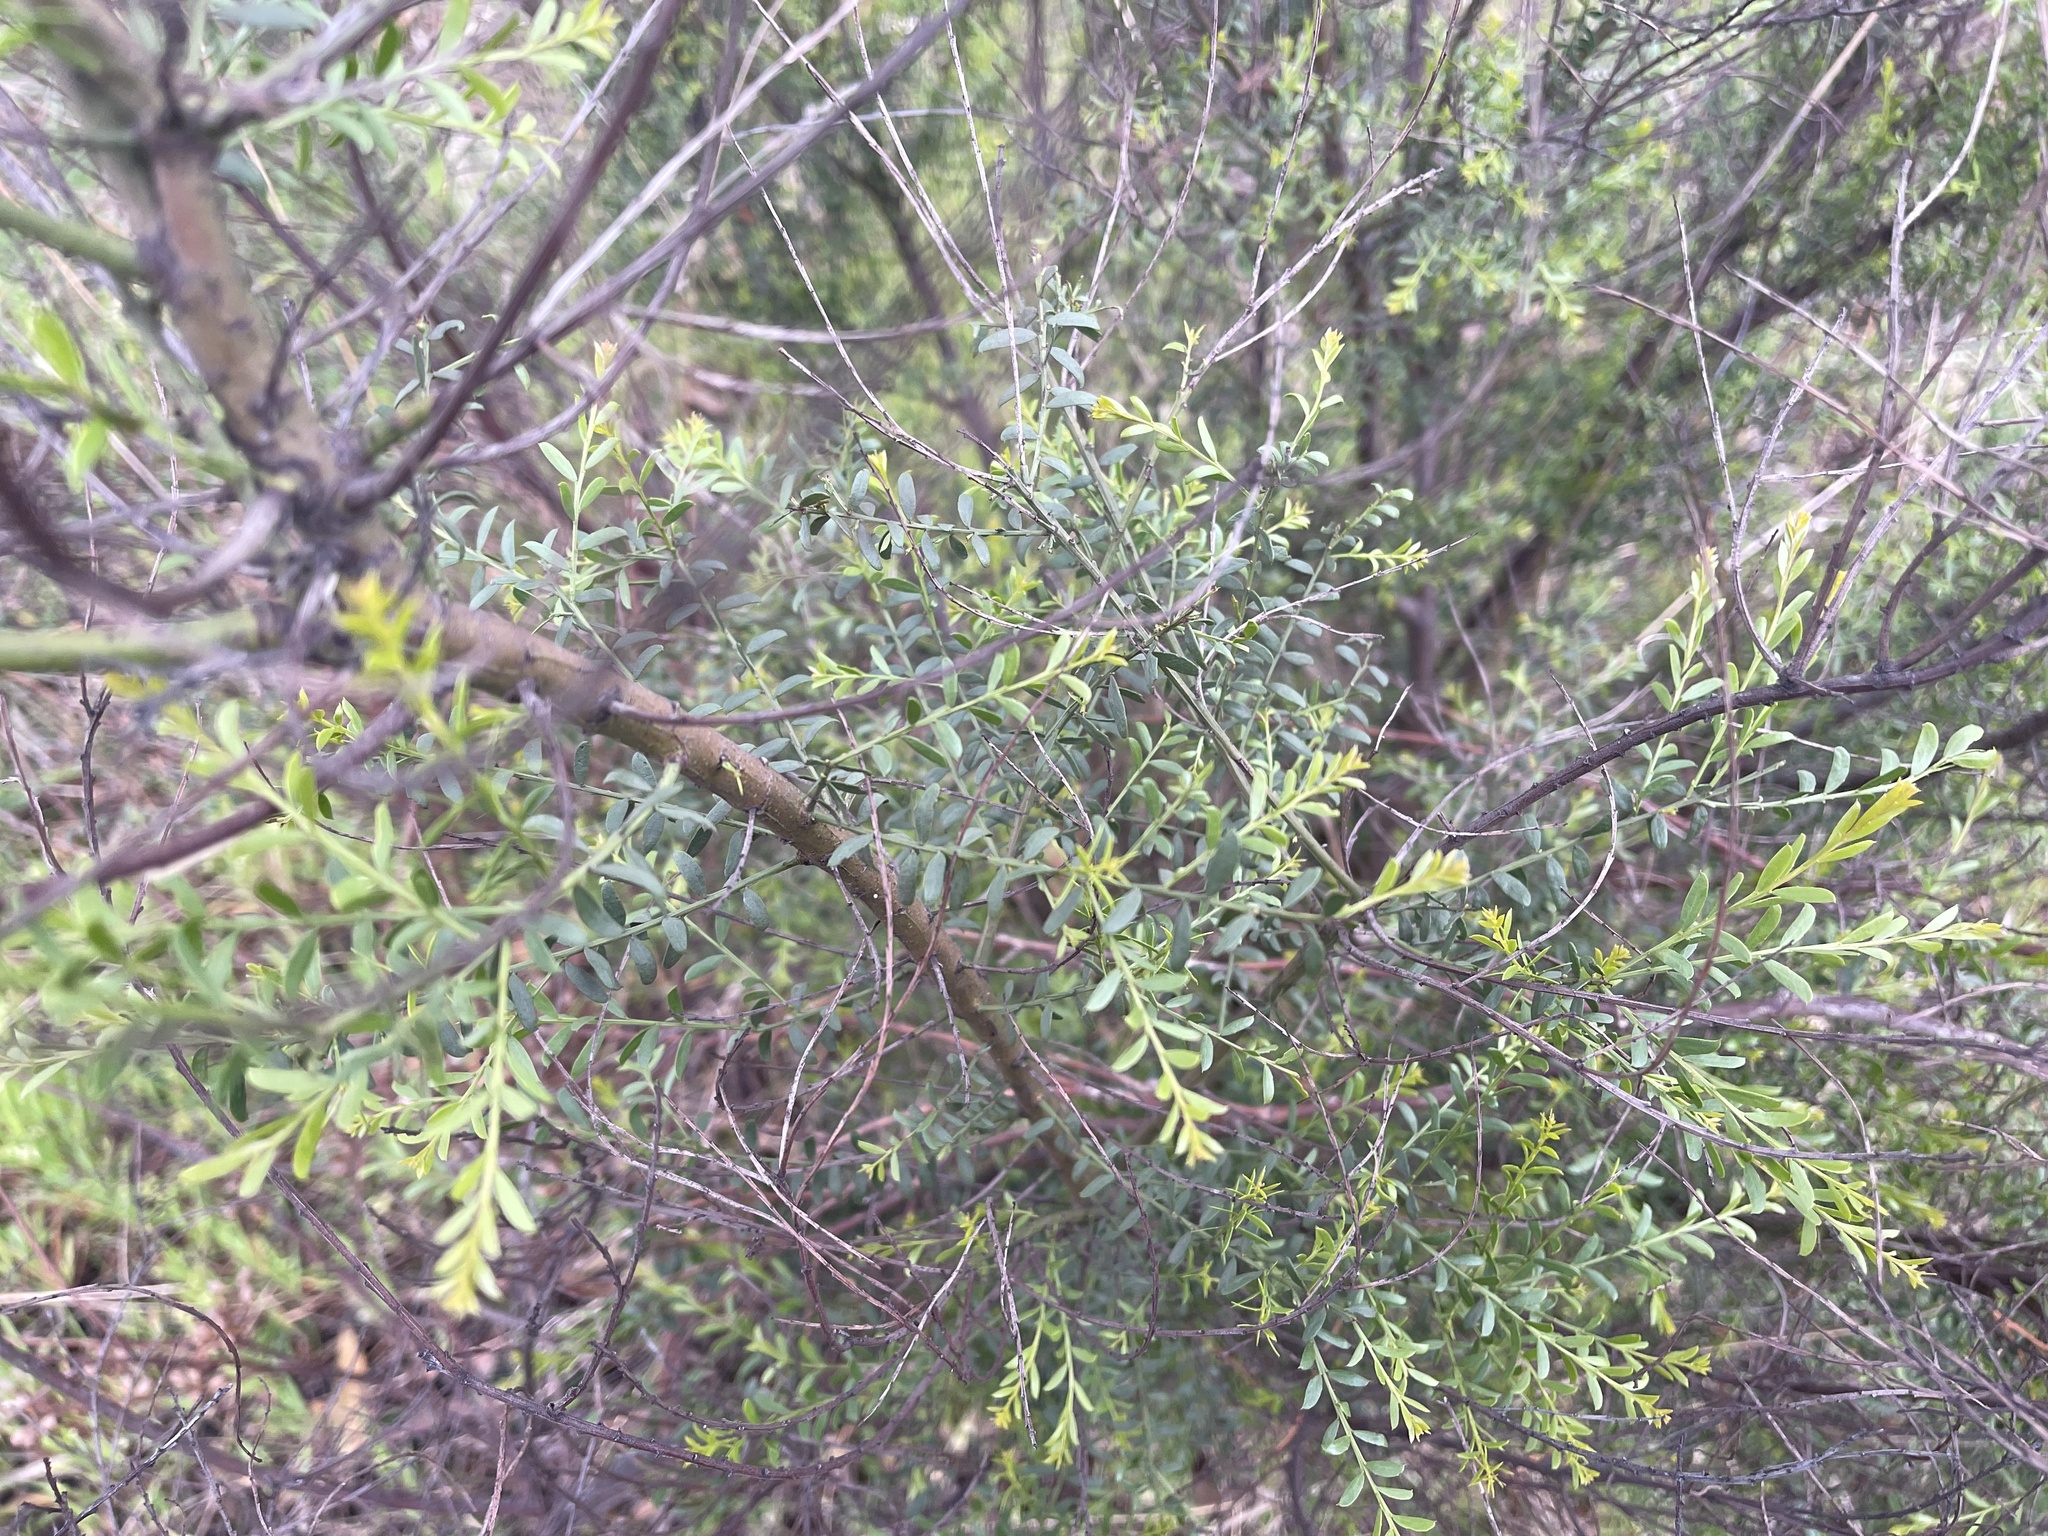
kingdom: Plantae
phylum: Tracheophyta
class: Magnoliopsida
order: Fabales
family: Fabaceae
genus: Acacia
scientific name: Acacia acinacea
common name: Gold-dust acacia
